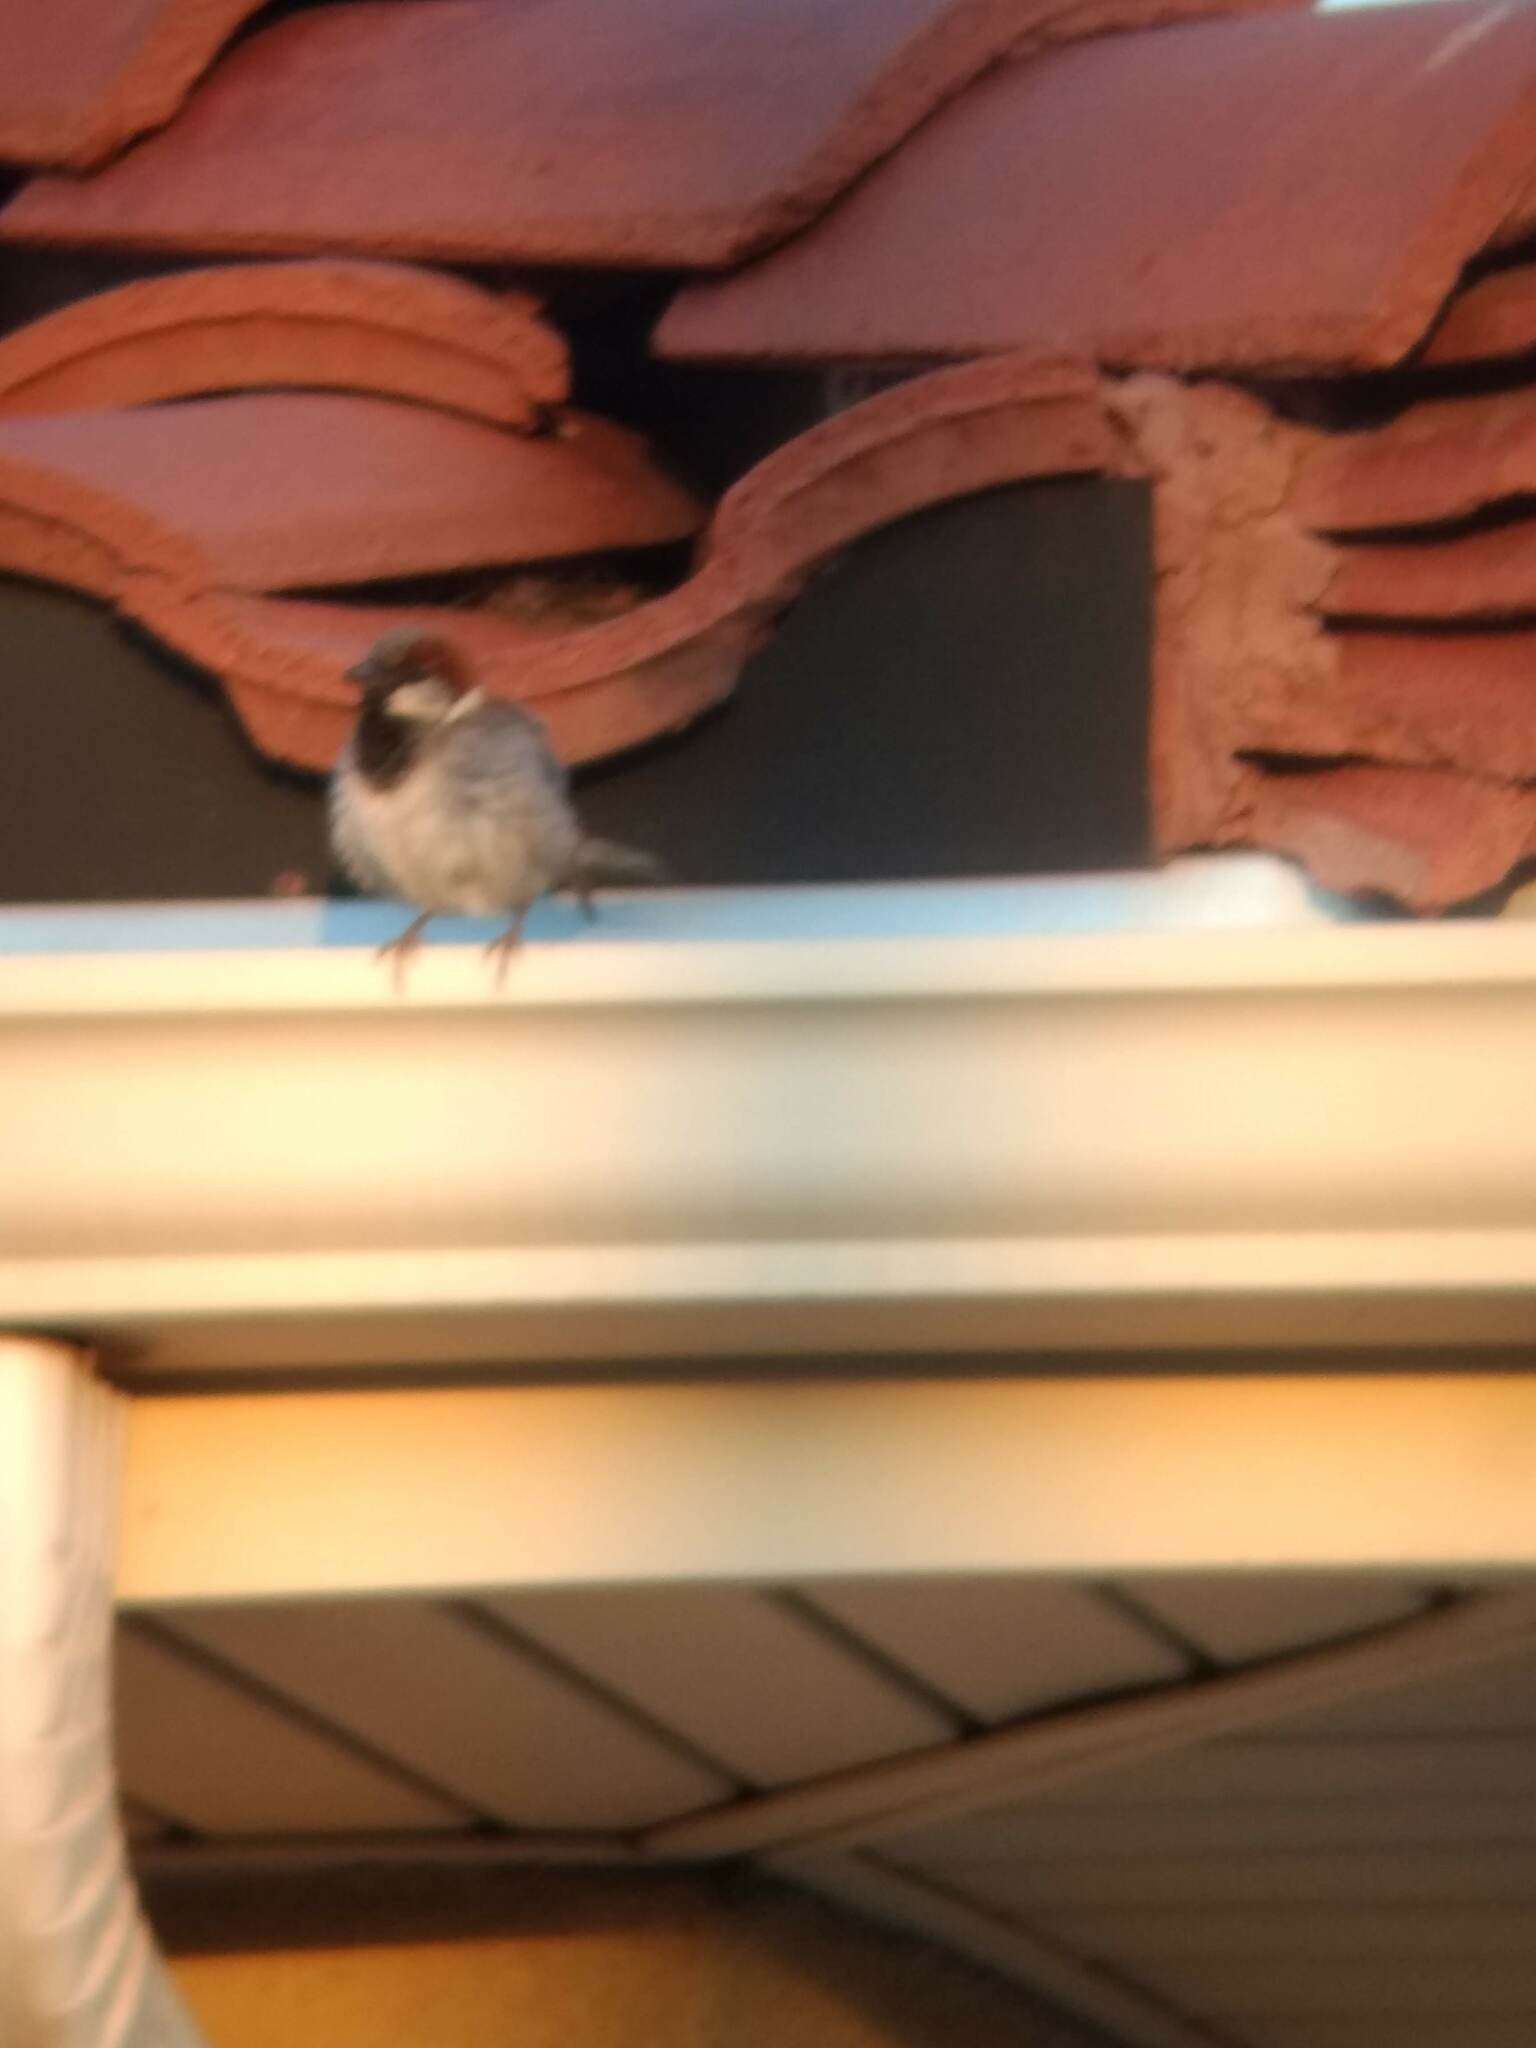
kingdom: Animalia
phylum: Chordata
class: Aves
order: Passeriformes
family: Passeridae
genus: Passer
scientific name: Passer domesticus
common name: House sparrow
